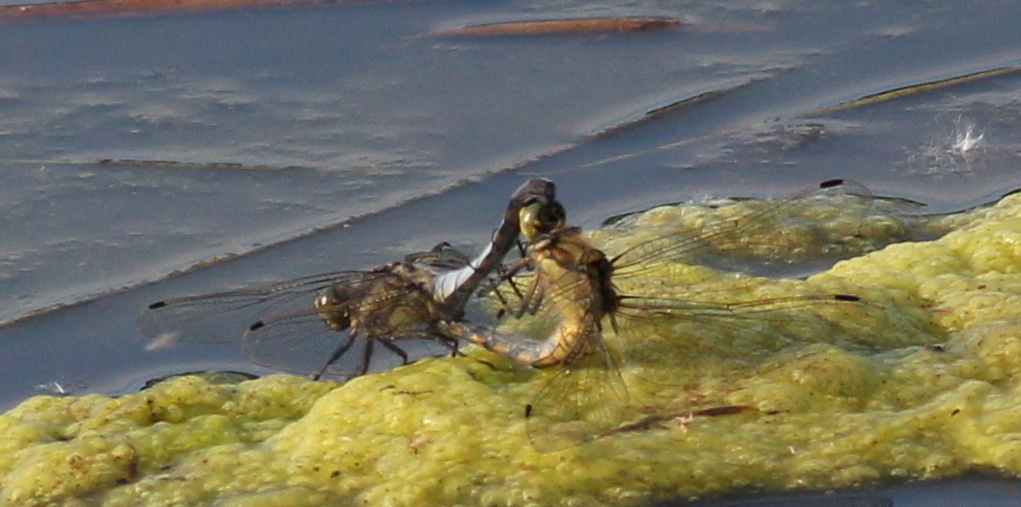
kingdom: Animalia
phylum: Arthropoda
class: Insecta
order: Odonata
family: Libellulidae
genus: Orthetrum
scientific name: Orthetrum cancellatum
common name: Black-tailed skimmer
